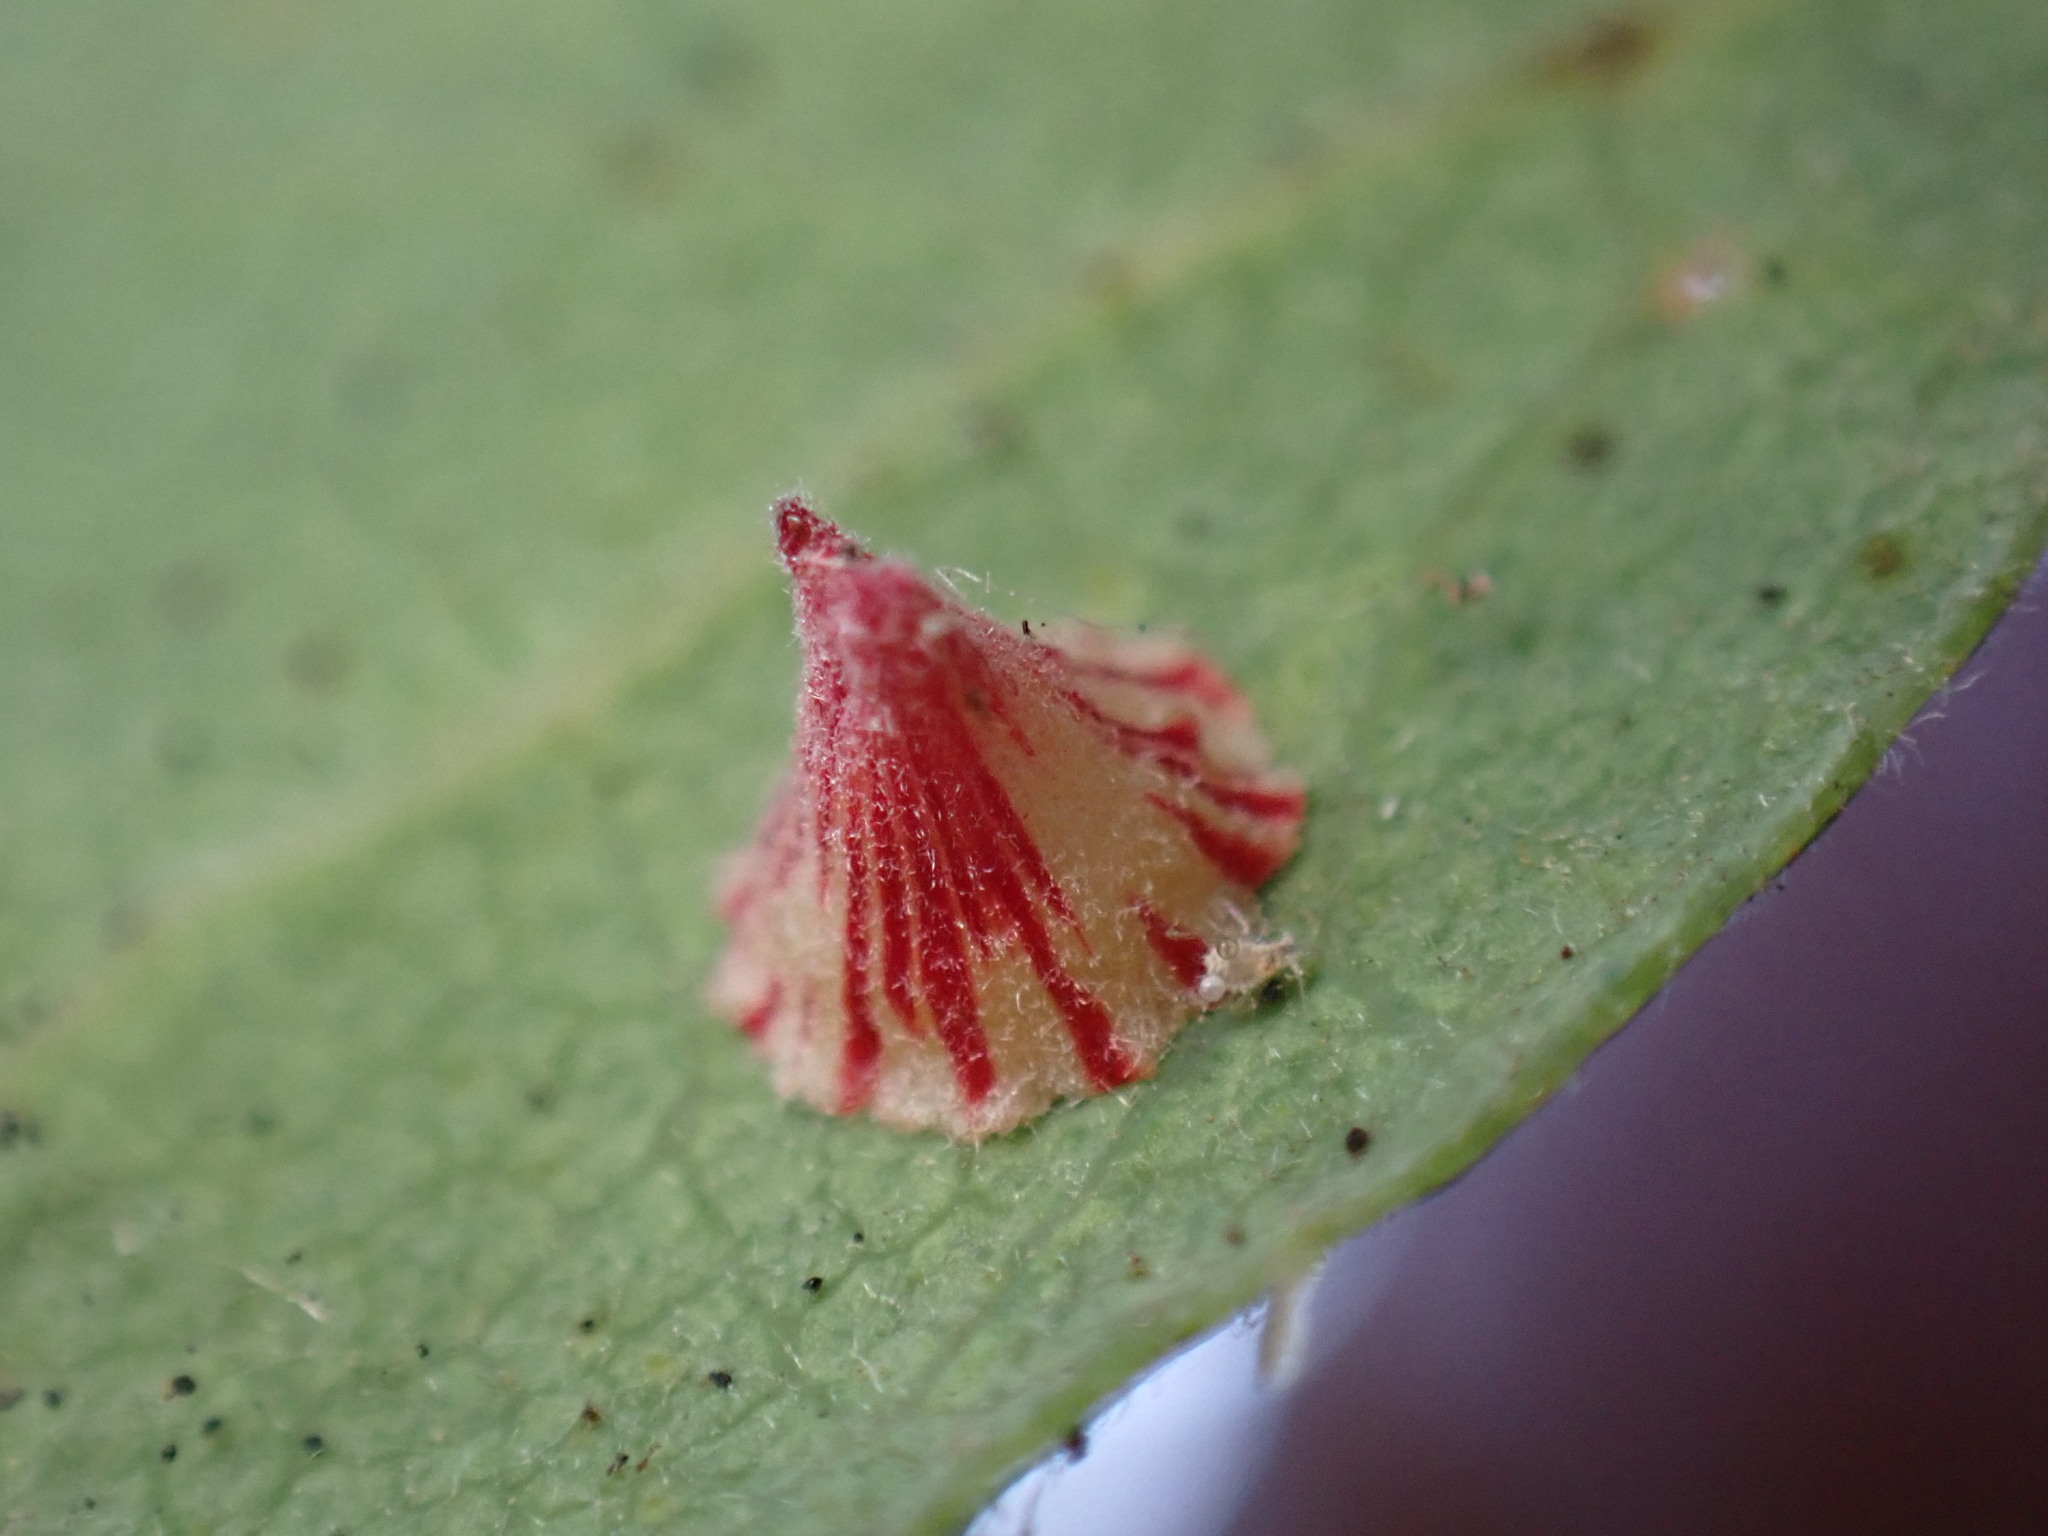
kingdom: Animalia
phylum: Arthropoda
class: Insecta
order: Hymenoptera
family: Cynipidae
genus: Andricus
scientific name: Andricus
